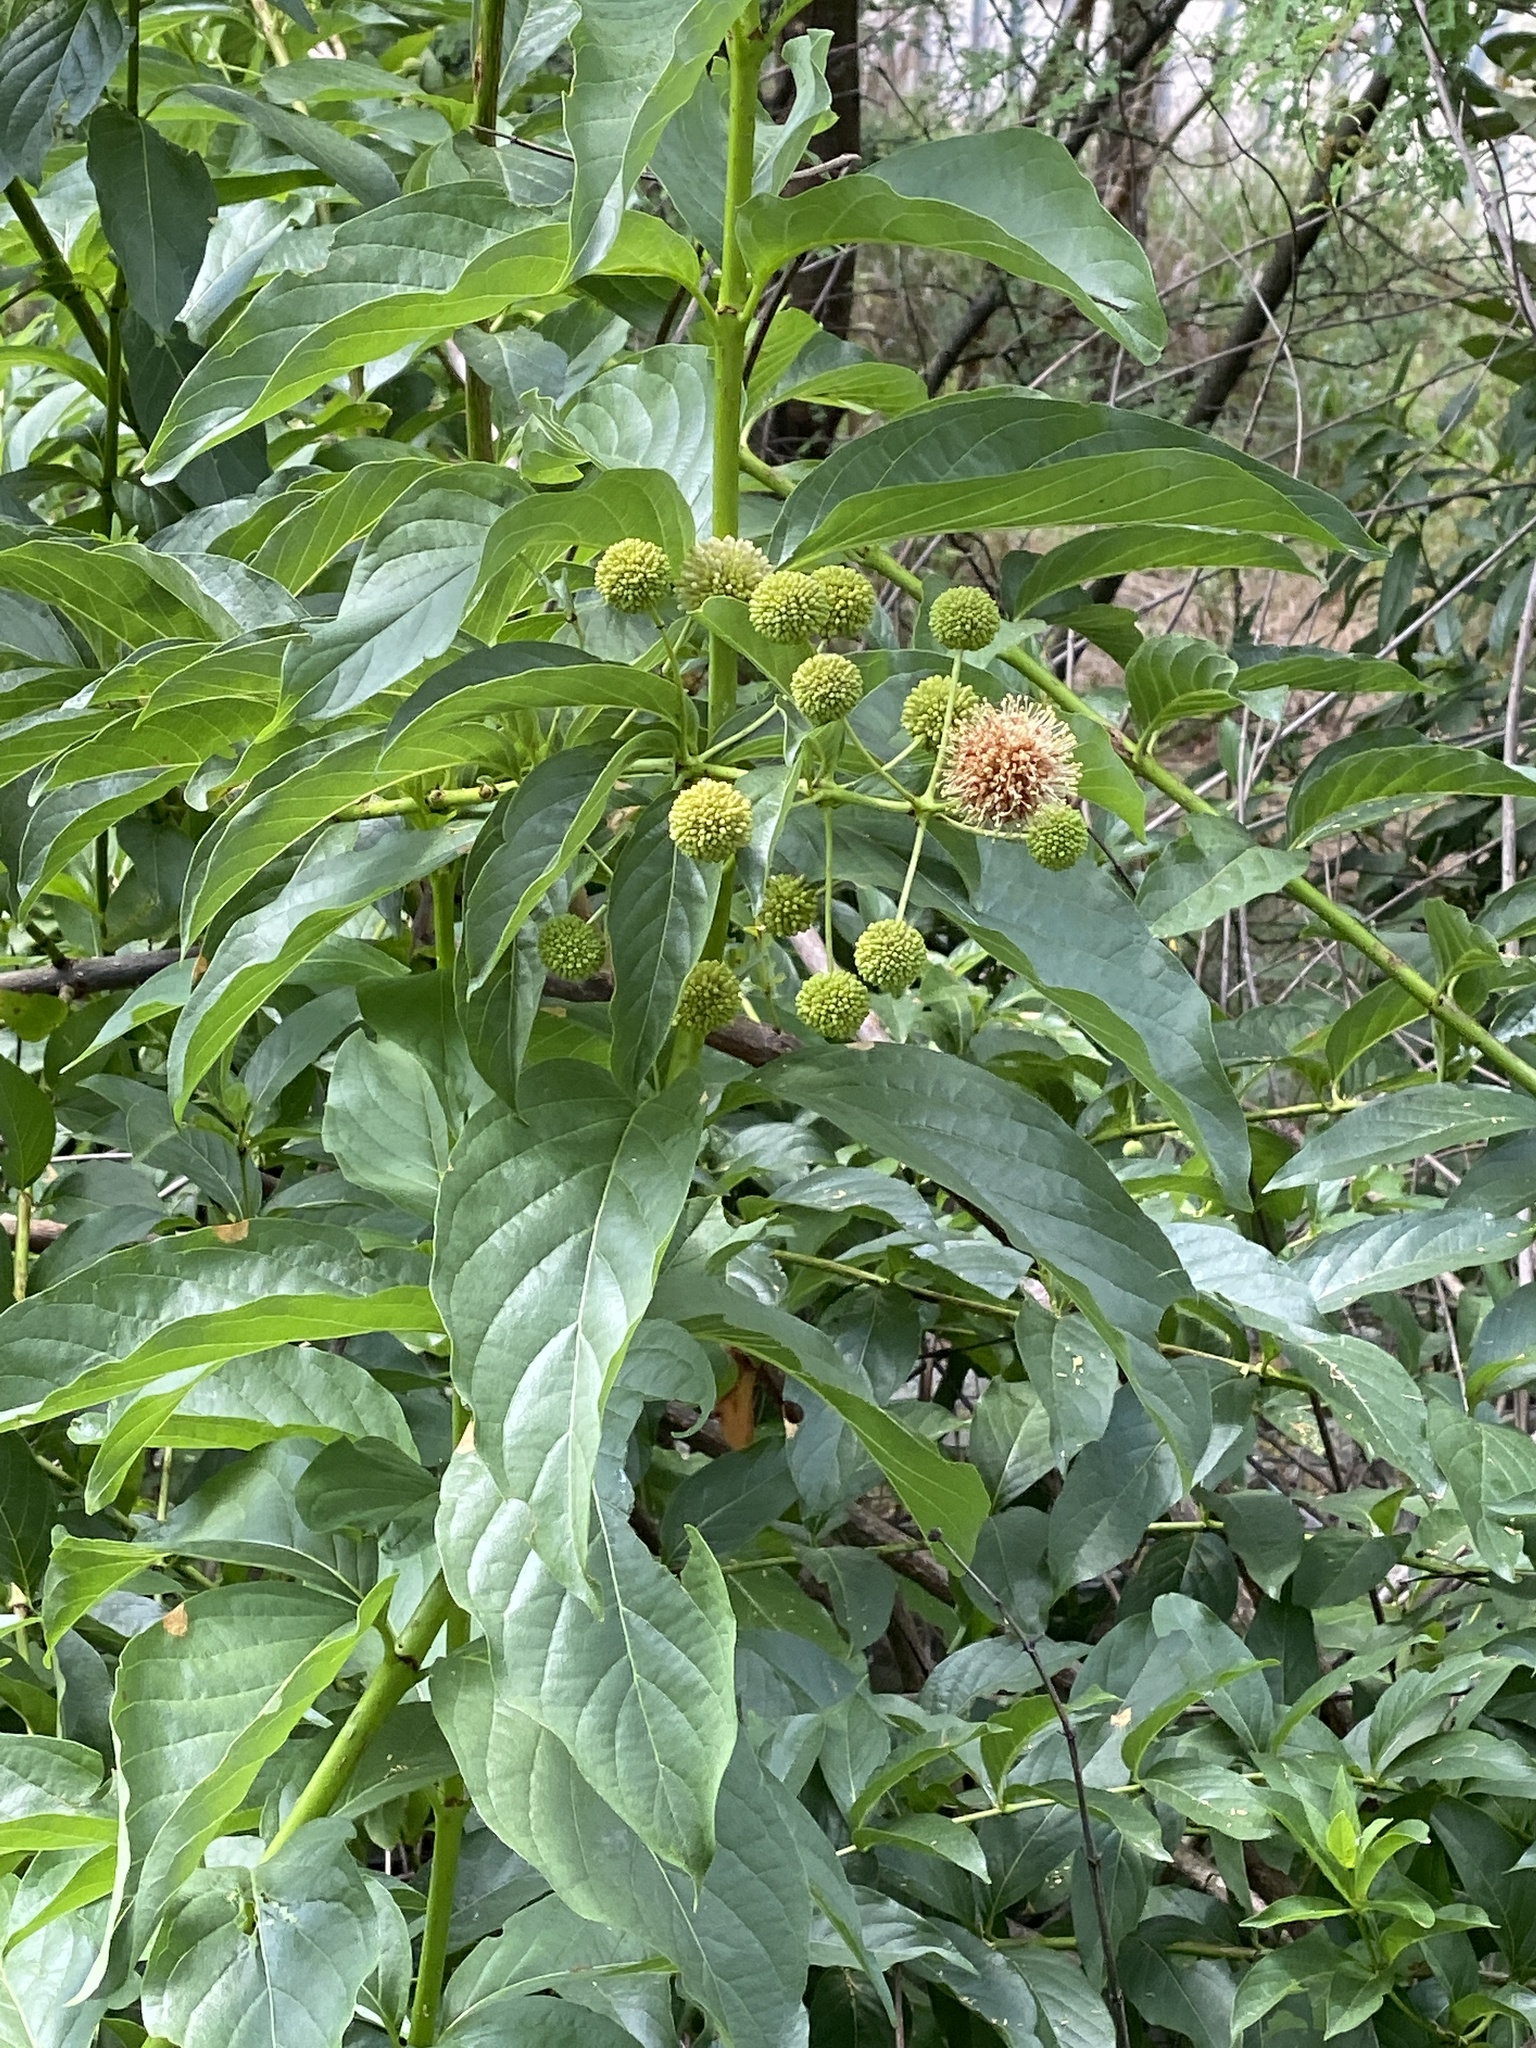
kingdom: Plantae
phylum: Tracheophyta
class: Magnoliopsida
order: Gentianales
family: Rubiaceae
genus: Cephalanthus
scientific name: Cephalanthus occidentalis
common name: Button-willow
